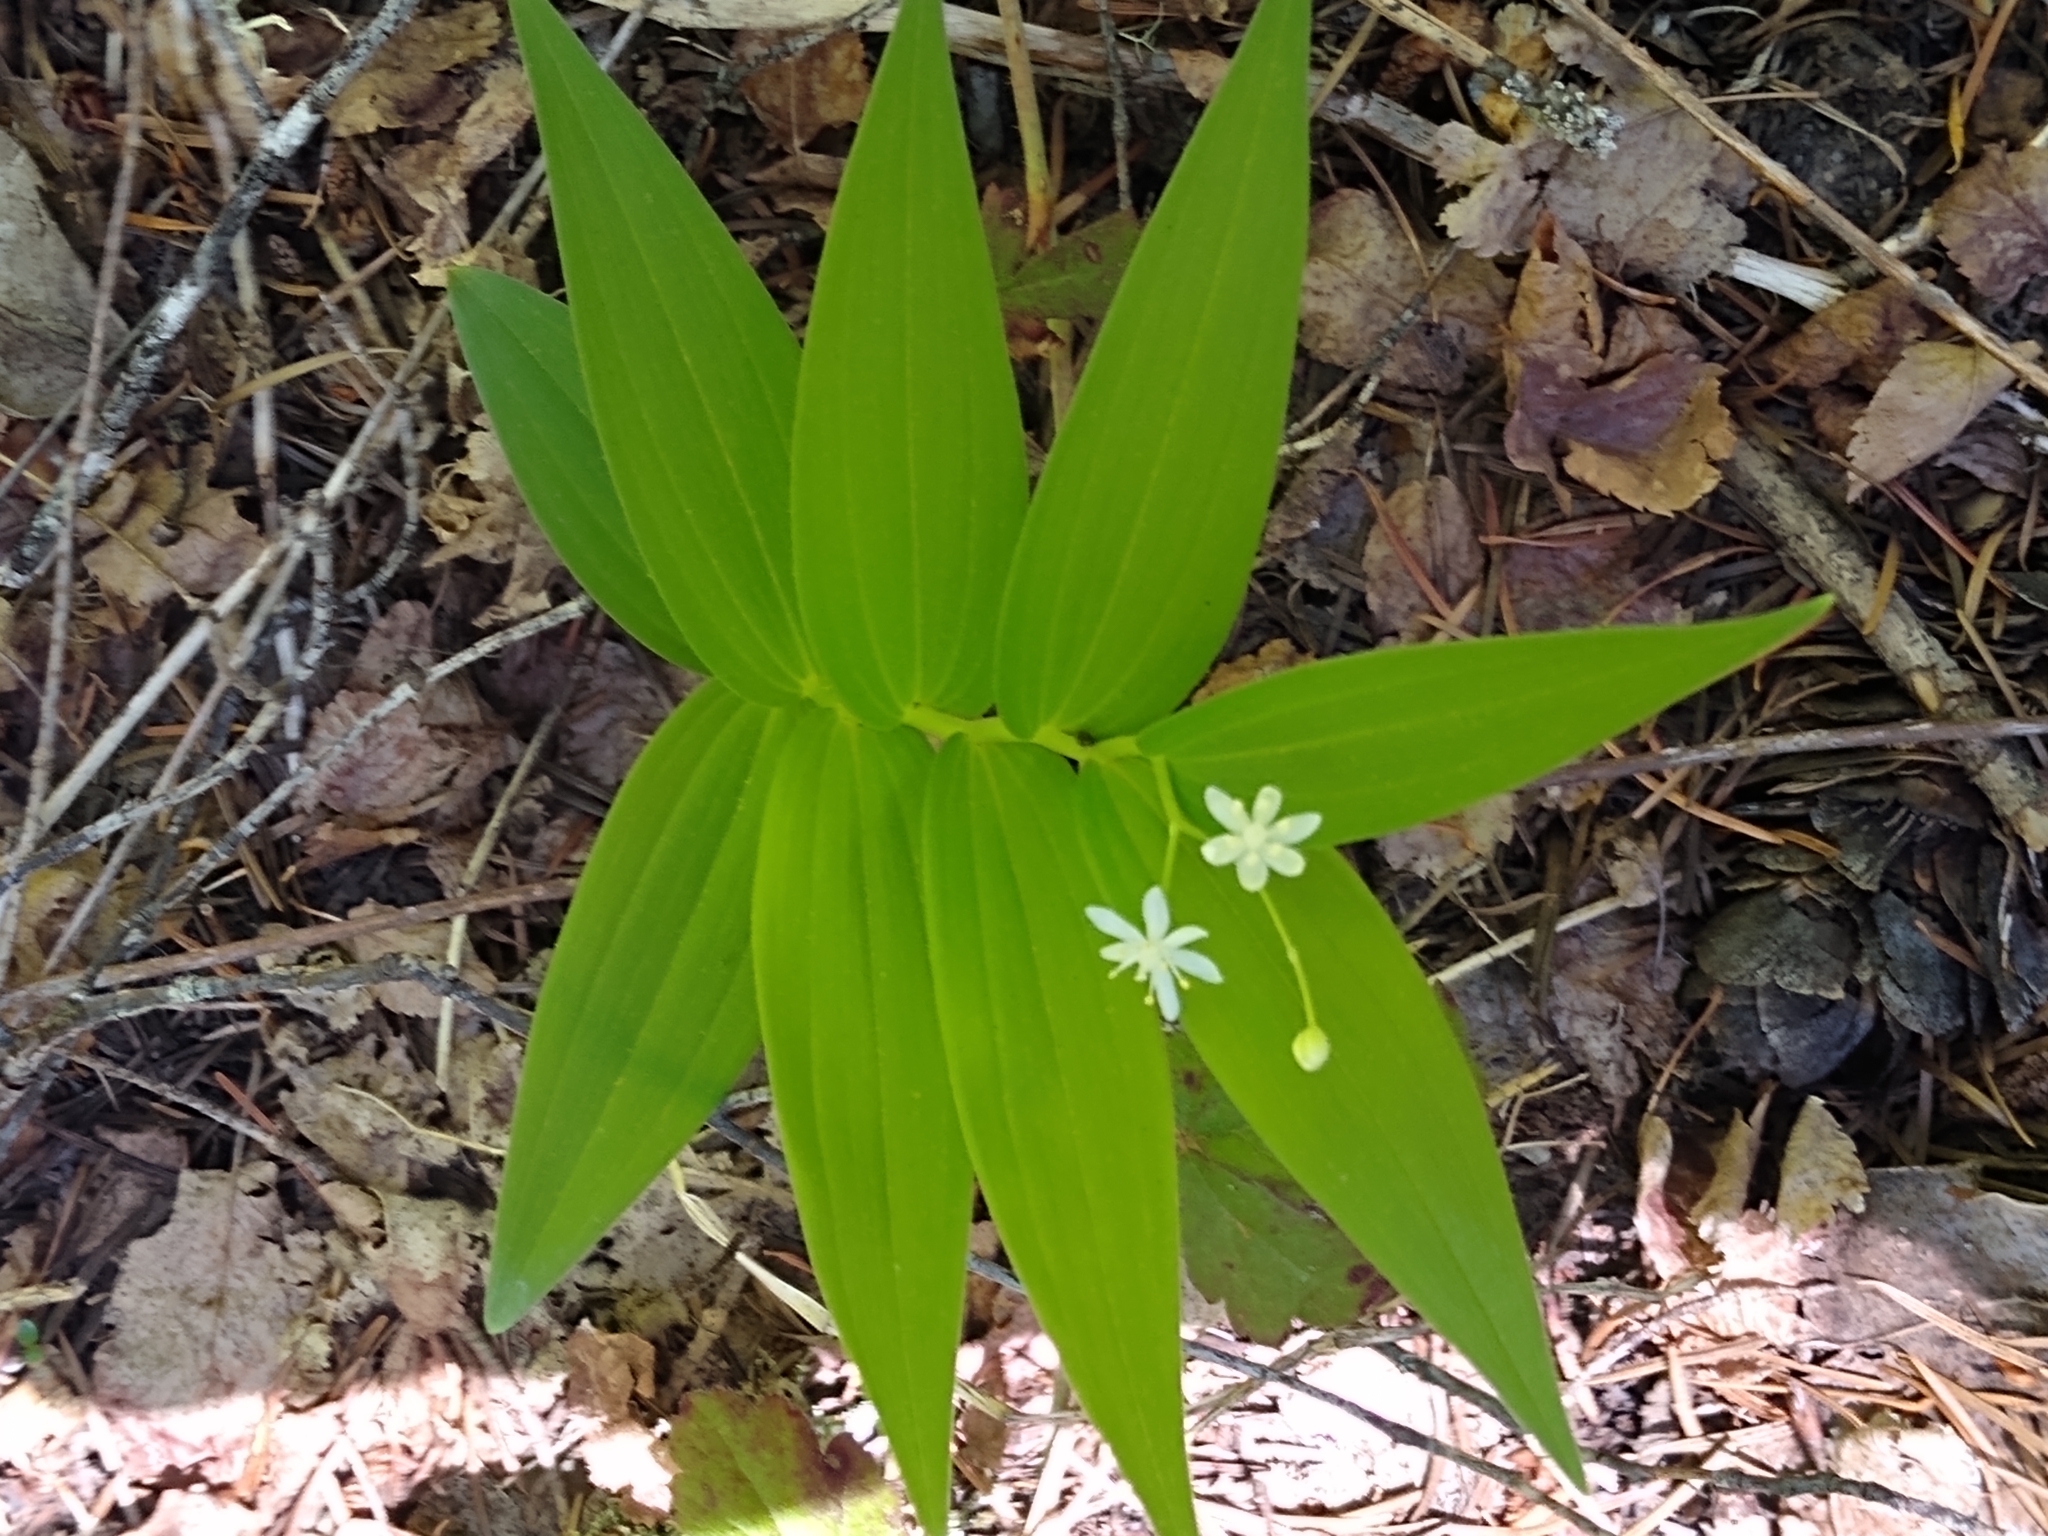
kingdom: Plantae
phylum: Tracheophyta
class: Liliopsida
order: Asparagales
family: Asparagaceae
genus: Maianthemum
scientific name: Maianthemum stellatum
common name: Little false solomon's seal
